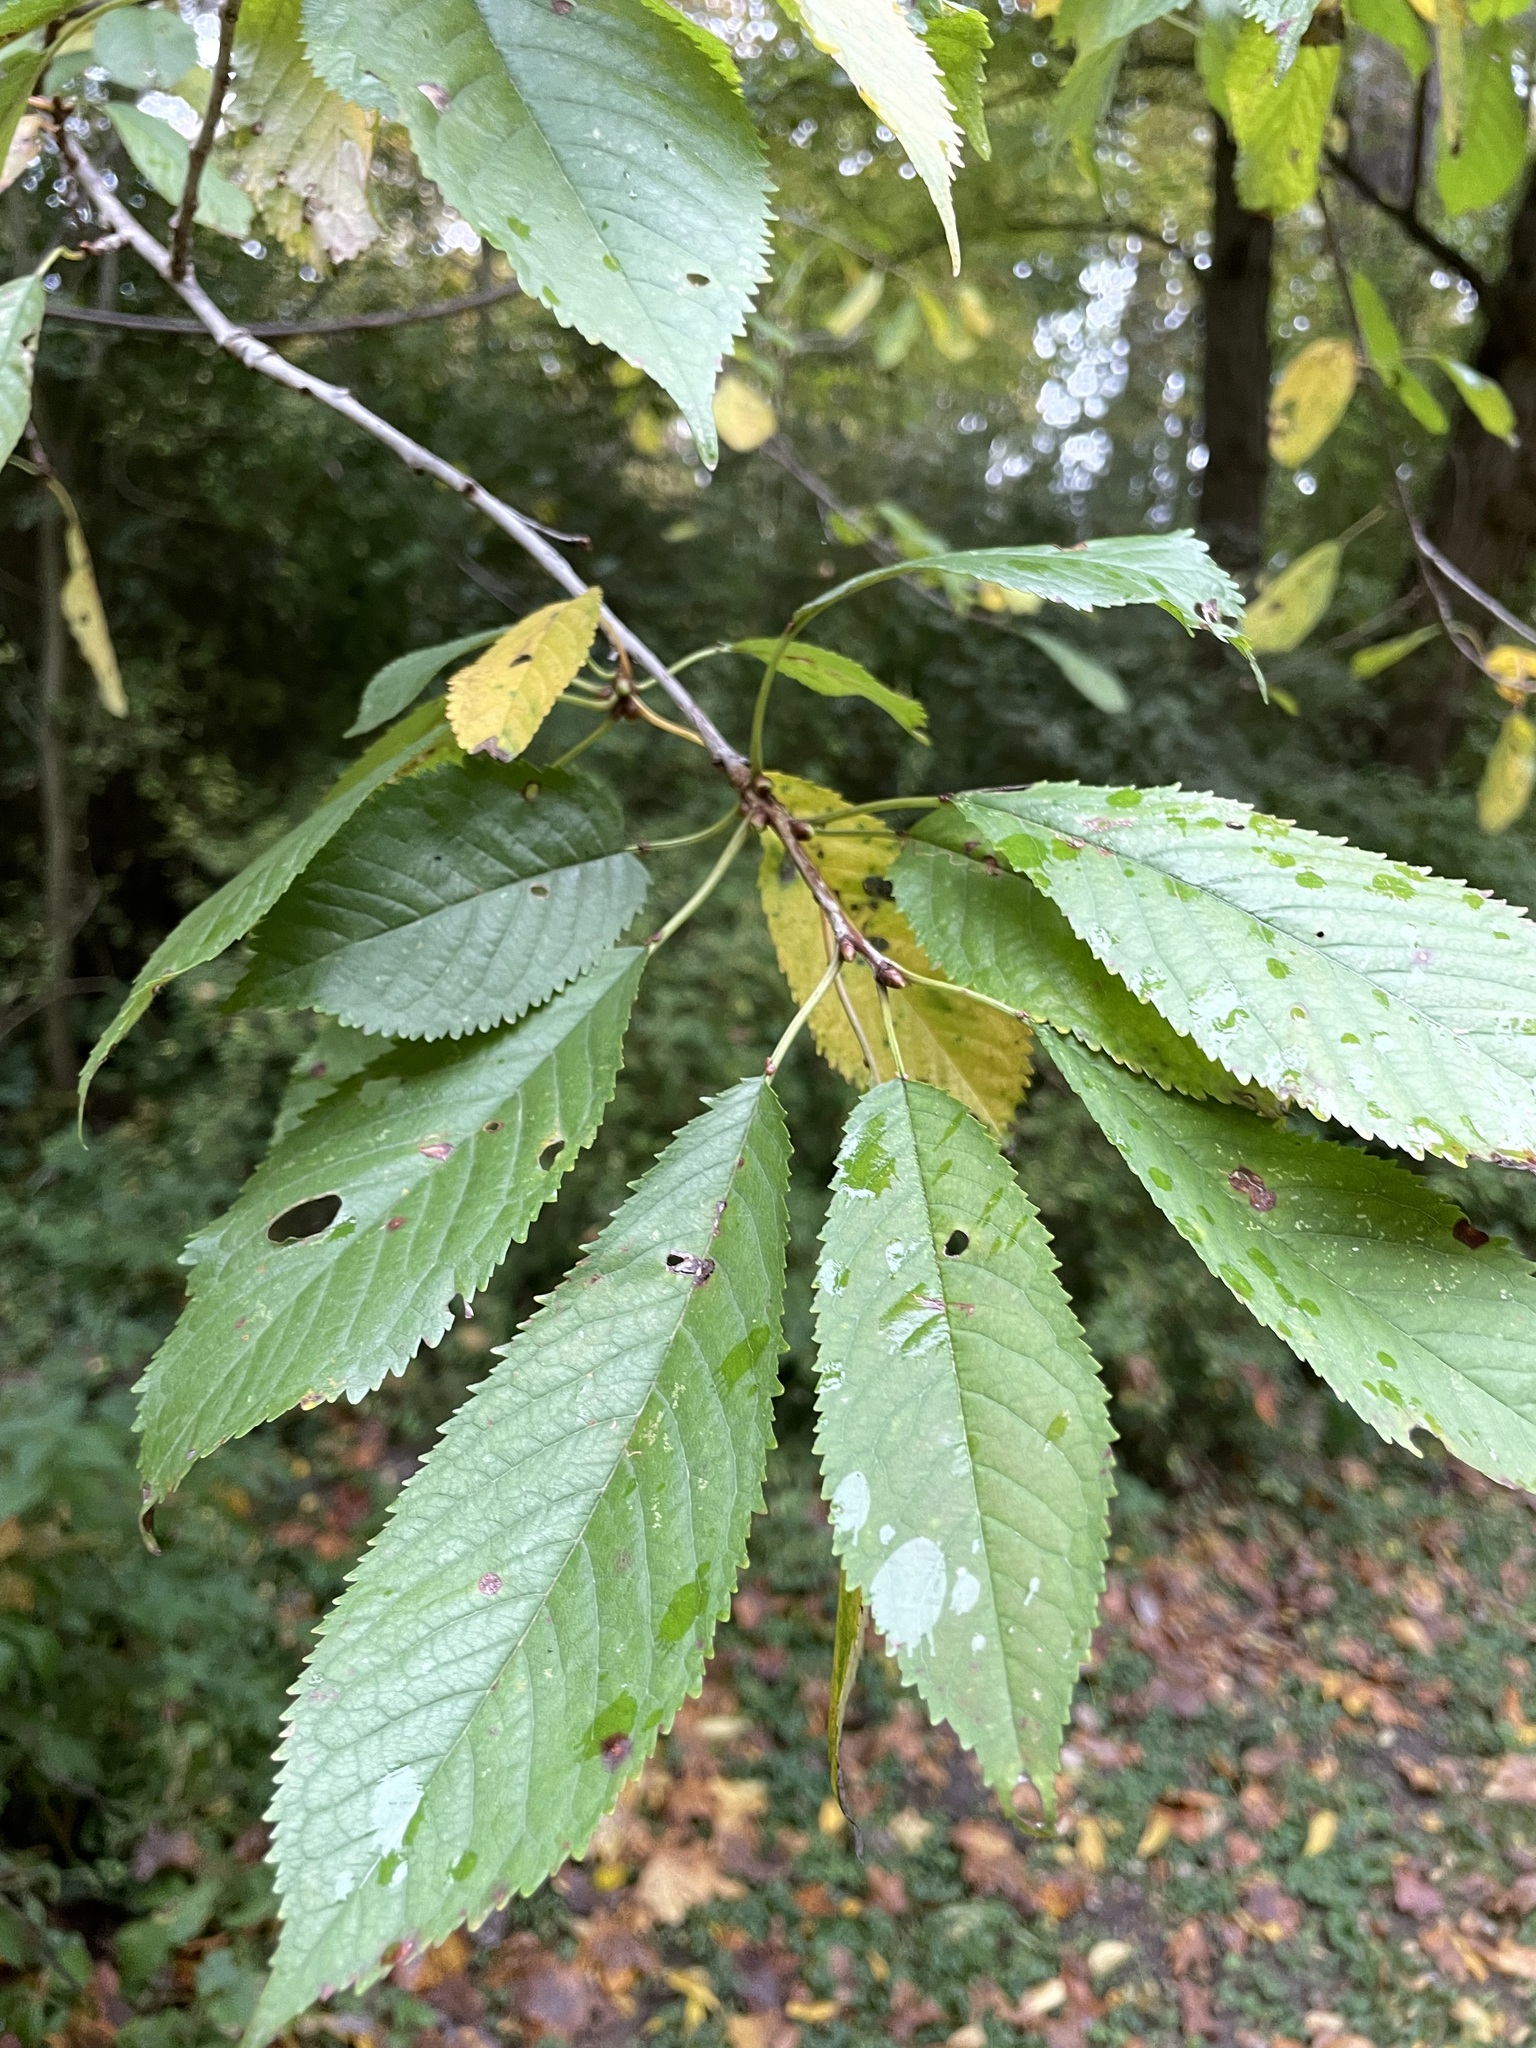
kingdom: Plantae
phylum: Tracheophyta
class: Magnoliopsida
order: Rosales
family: Rosaceae
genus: Prunus
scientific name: Prunus avium
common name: Sweet cherry
